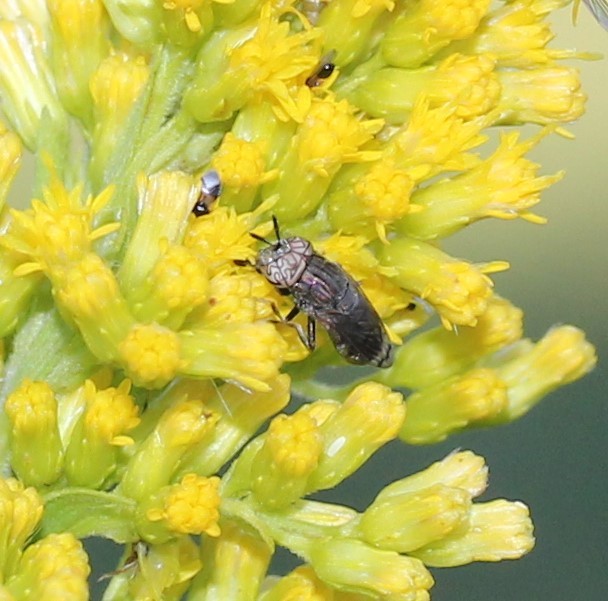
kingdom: Animalia
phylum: Arthropoda
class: Insecta
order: Diptera
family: Syrphidae
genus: Orthonevra
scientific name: Orthonevra nitida
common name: Wavy mucksucker
